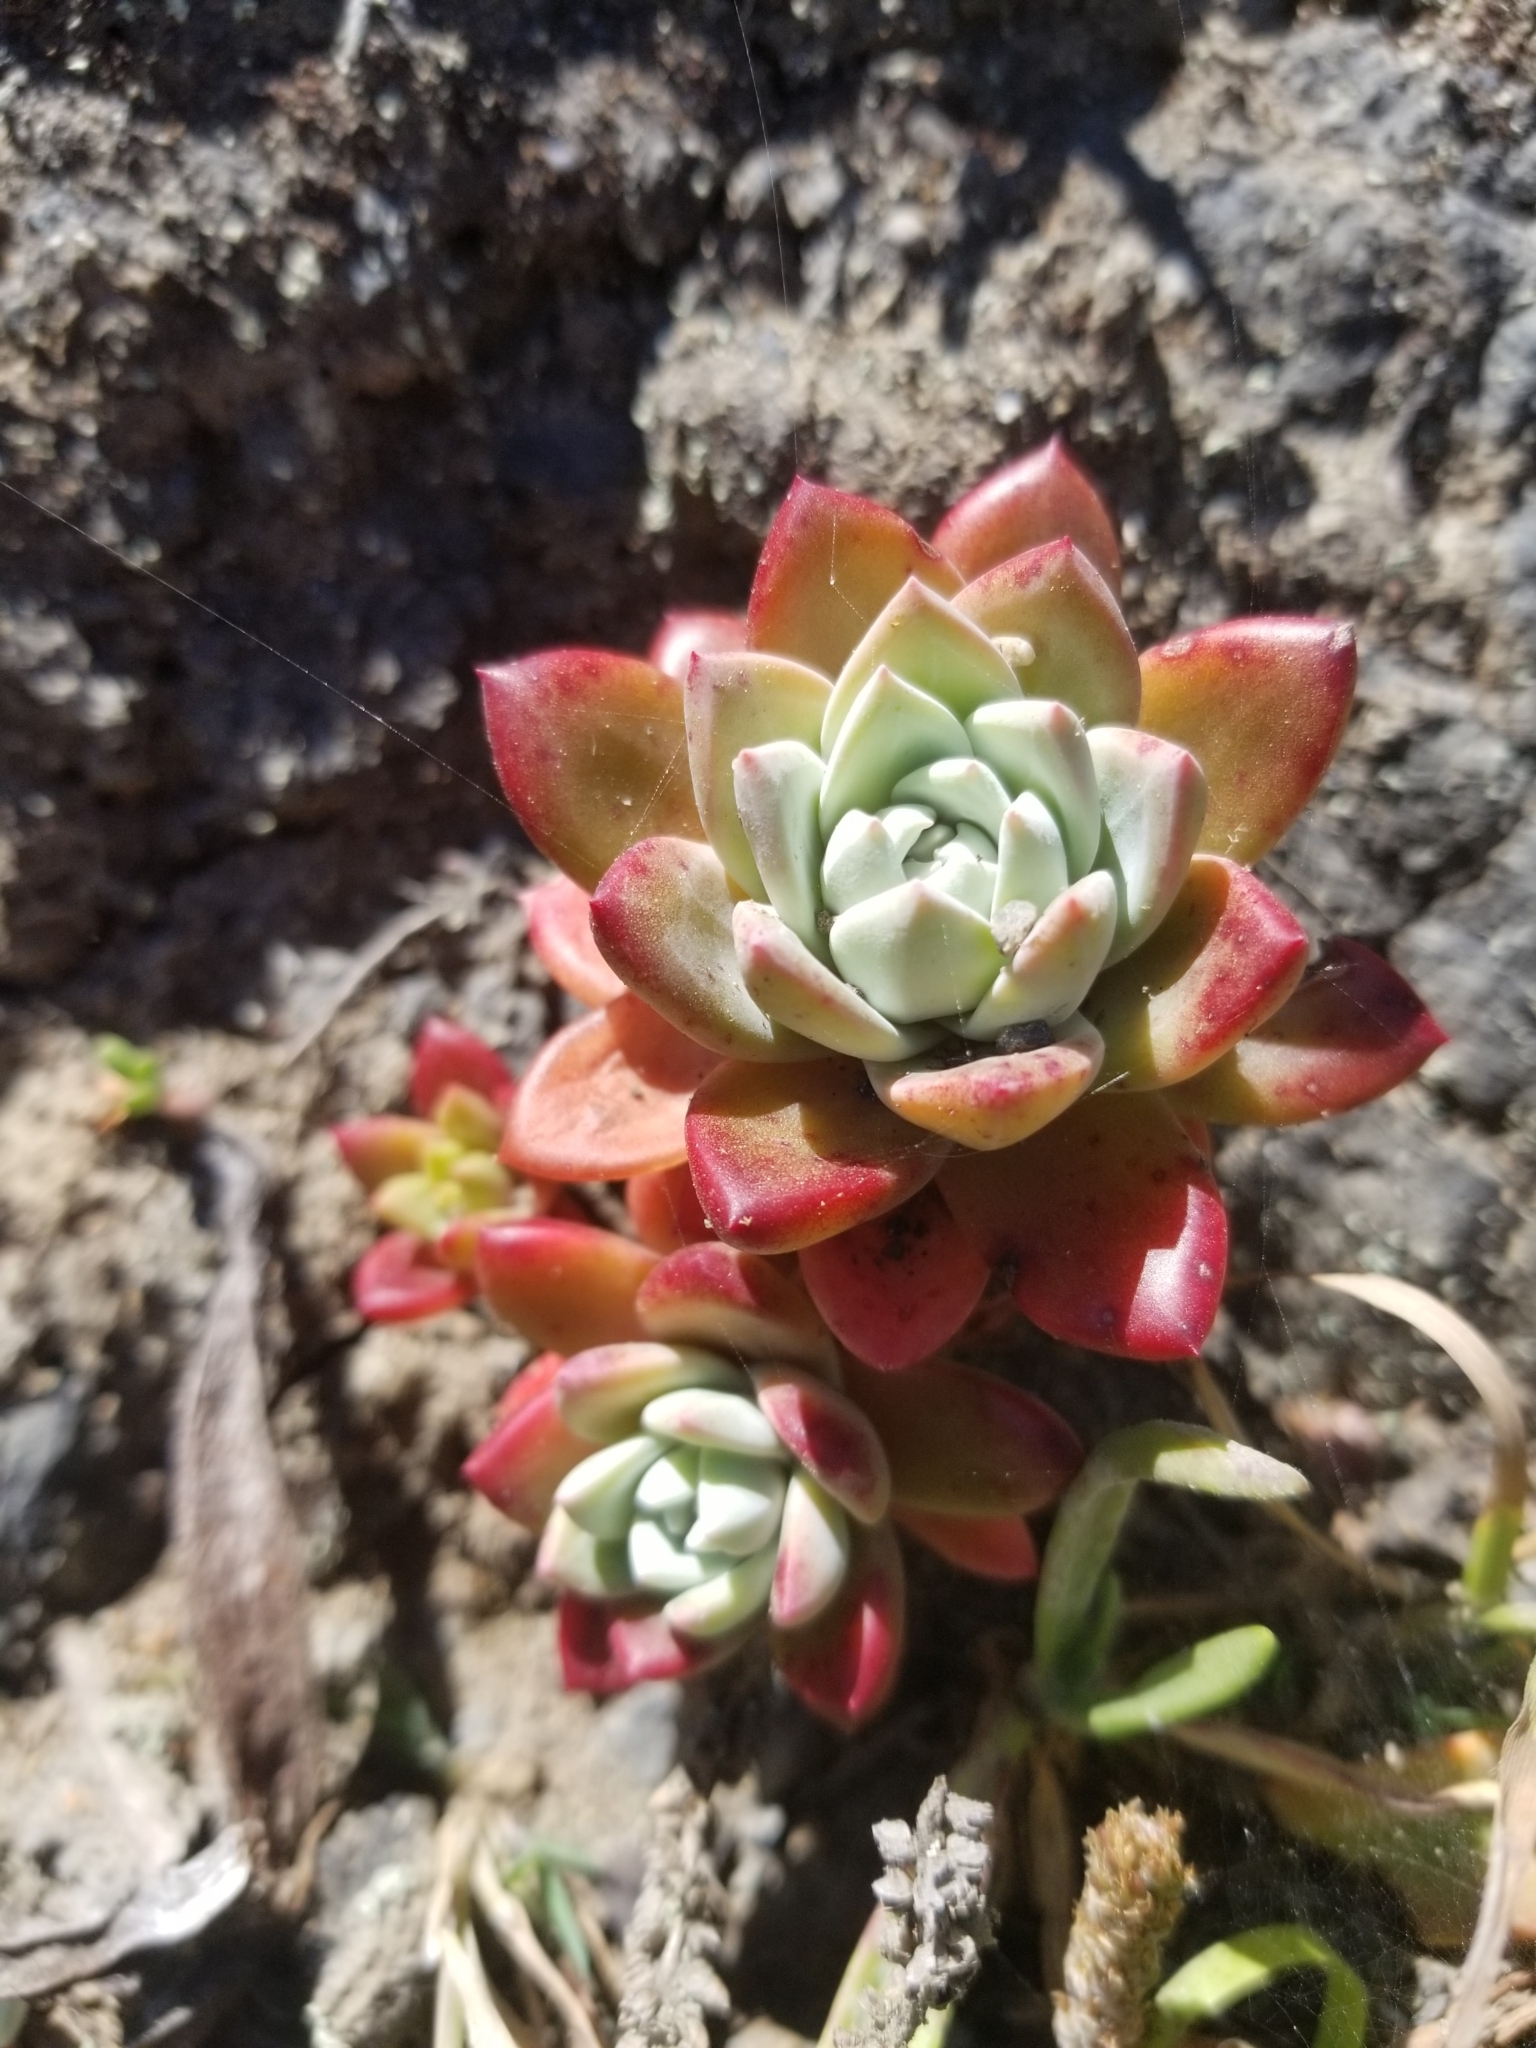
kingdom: Plantae
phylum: Tracheophyta
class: Magnoliopsida
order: Saxifragales
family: Crassulaceae
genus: Dudleya
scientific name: Dudleya farinosa
